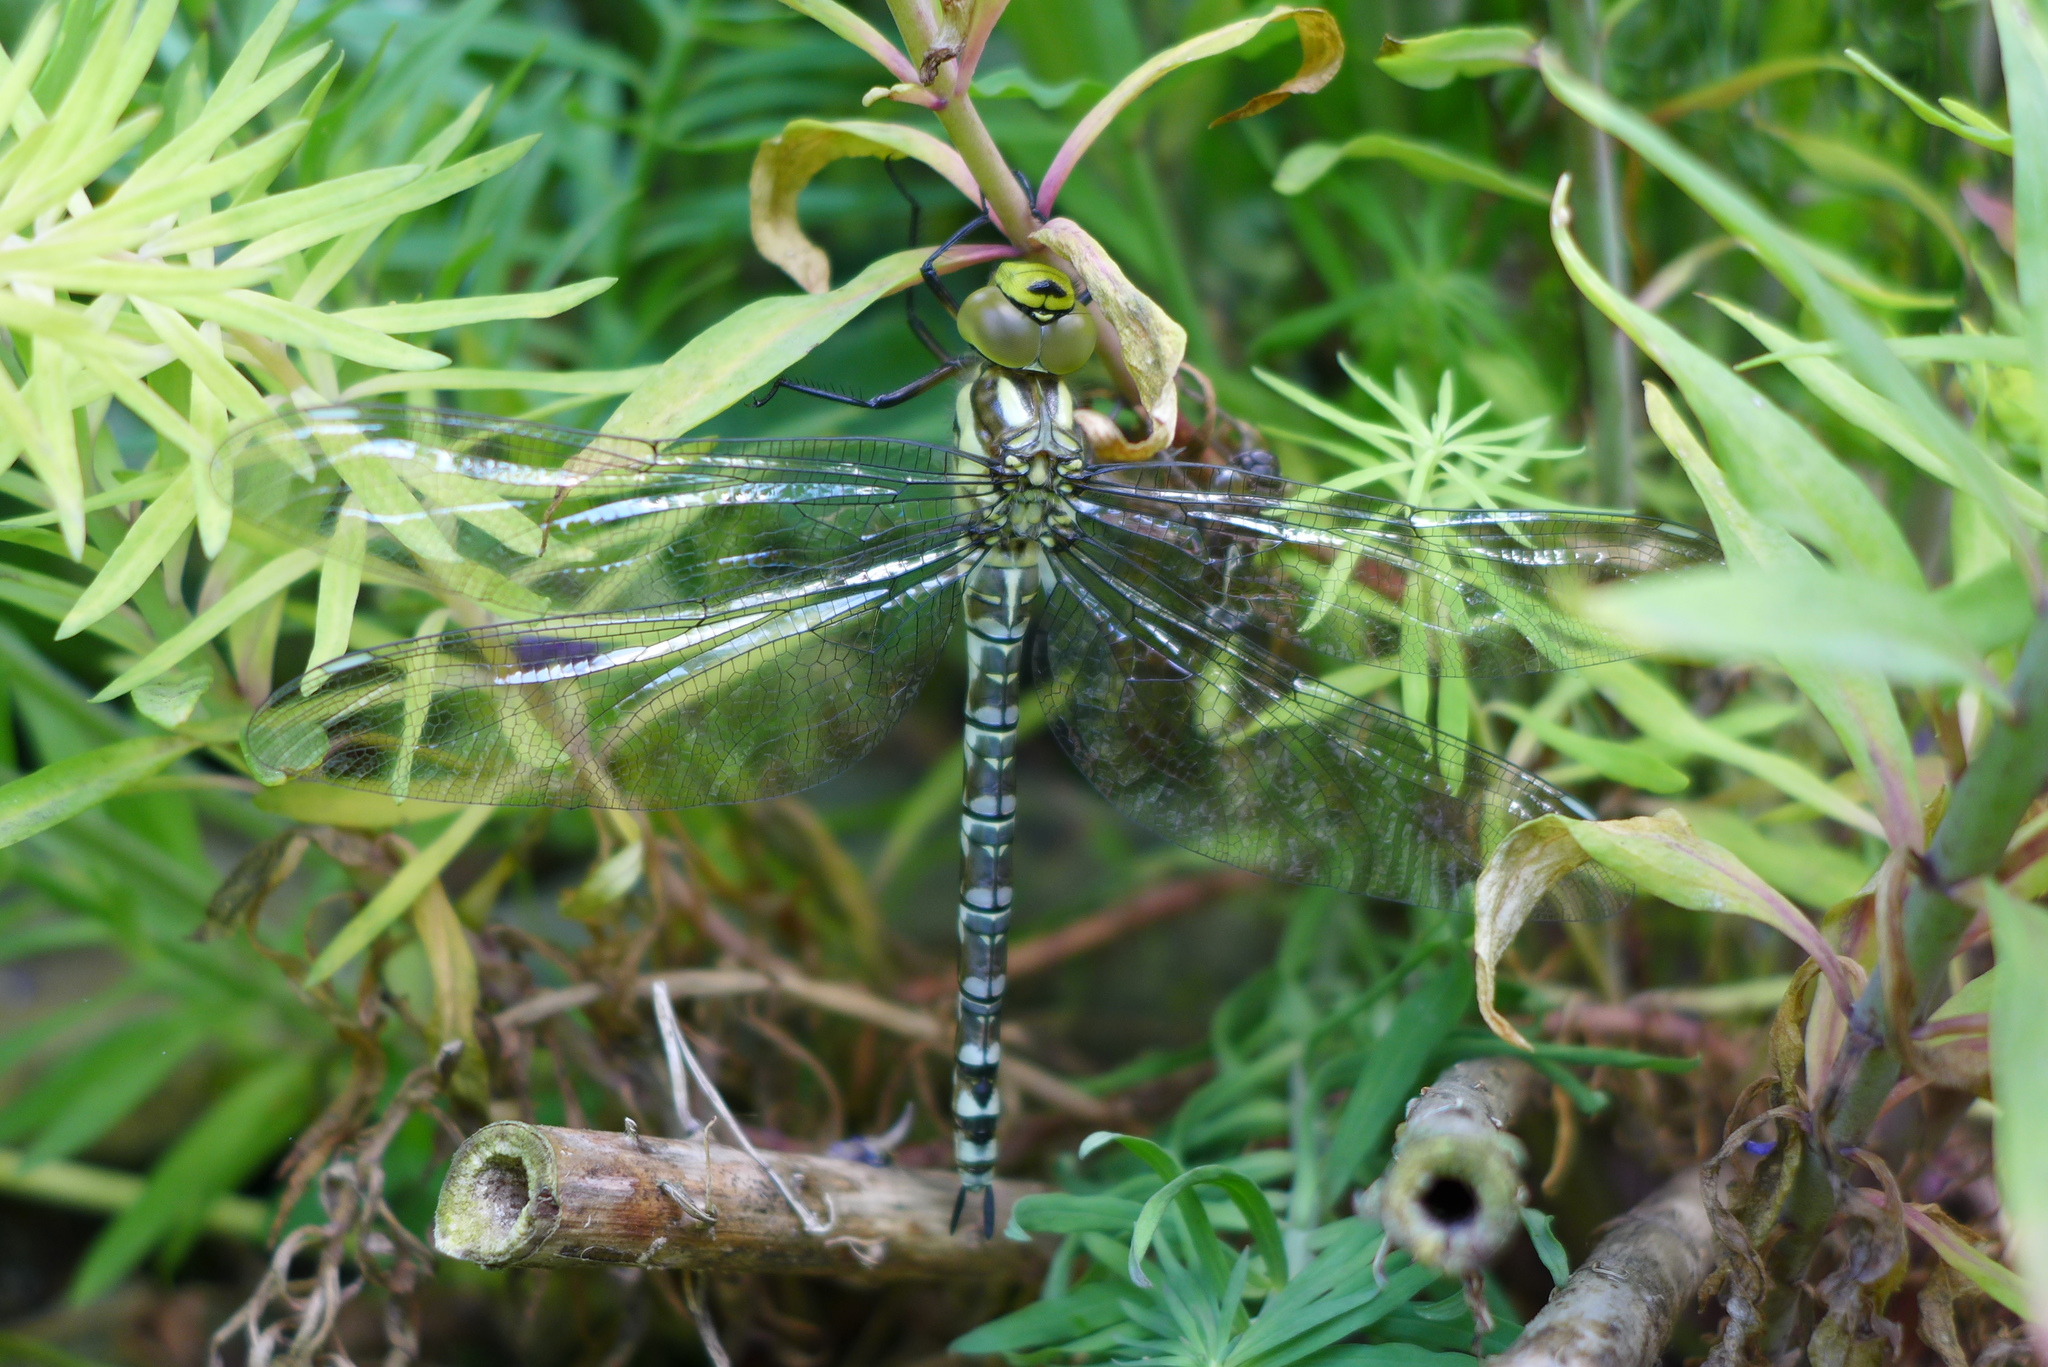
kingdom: Animalia
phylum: Arthropoda
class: Insecta
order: Odonata
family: Aeshnidae
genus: Aeshna
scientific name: Aeshna cyanea
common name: Southern hawker
